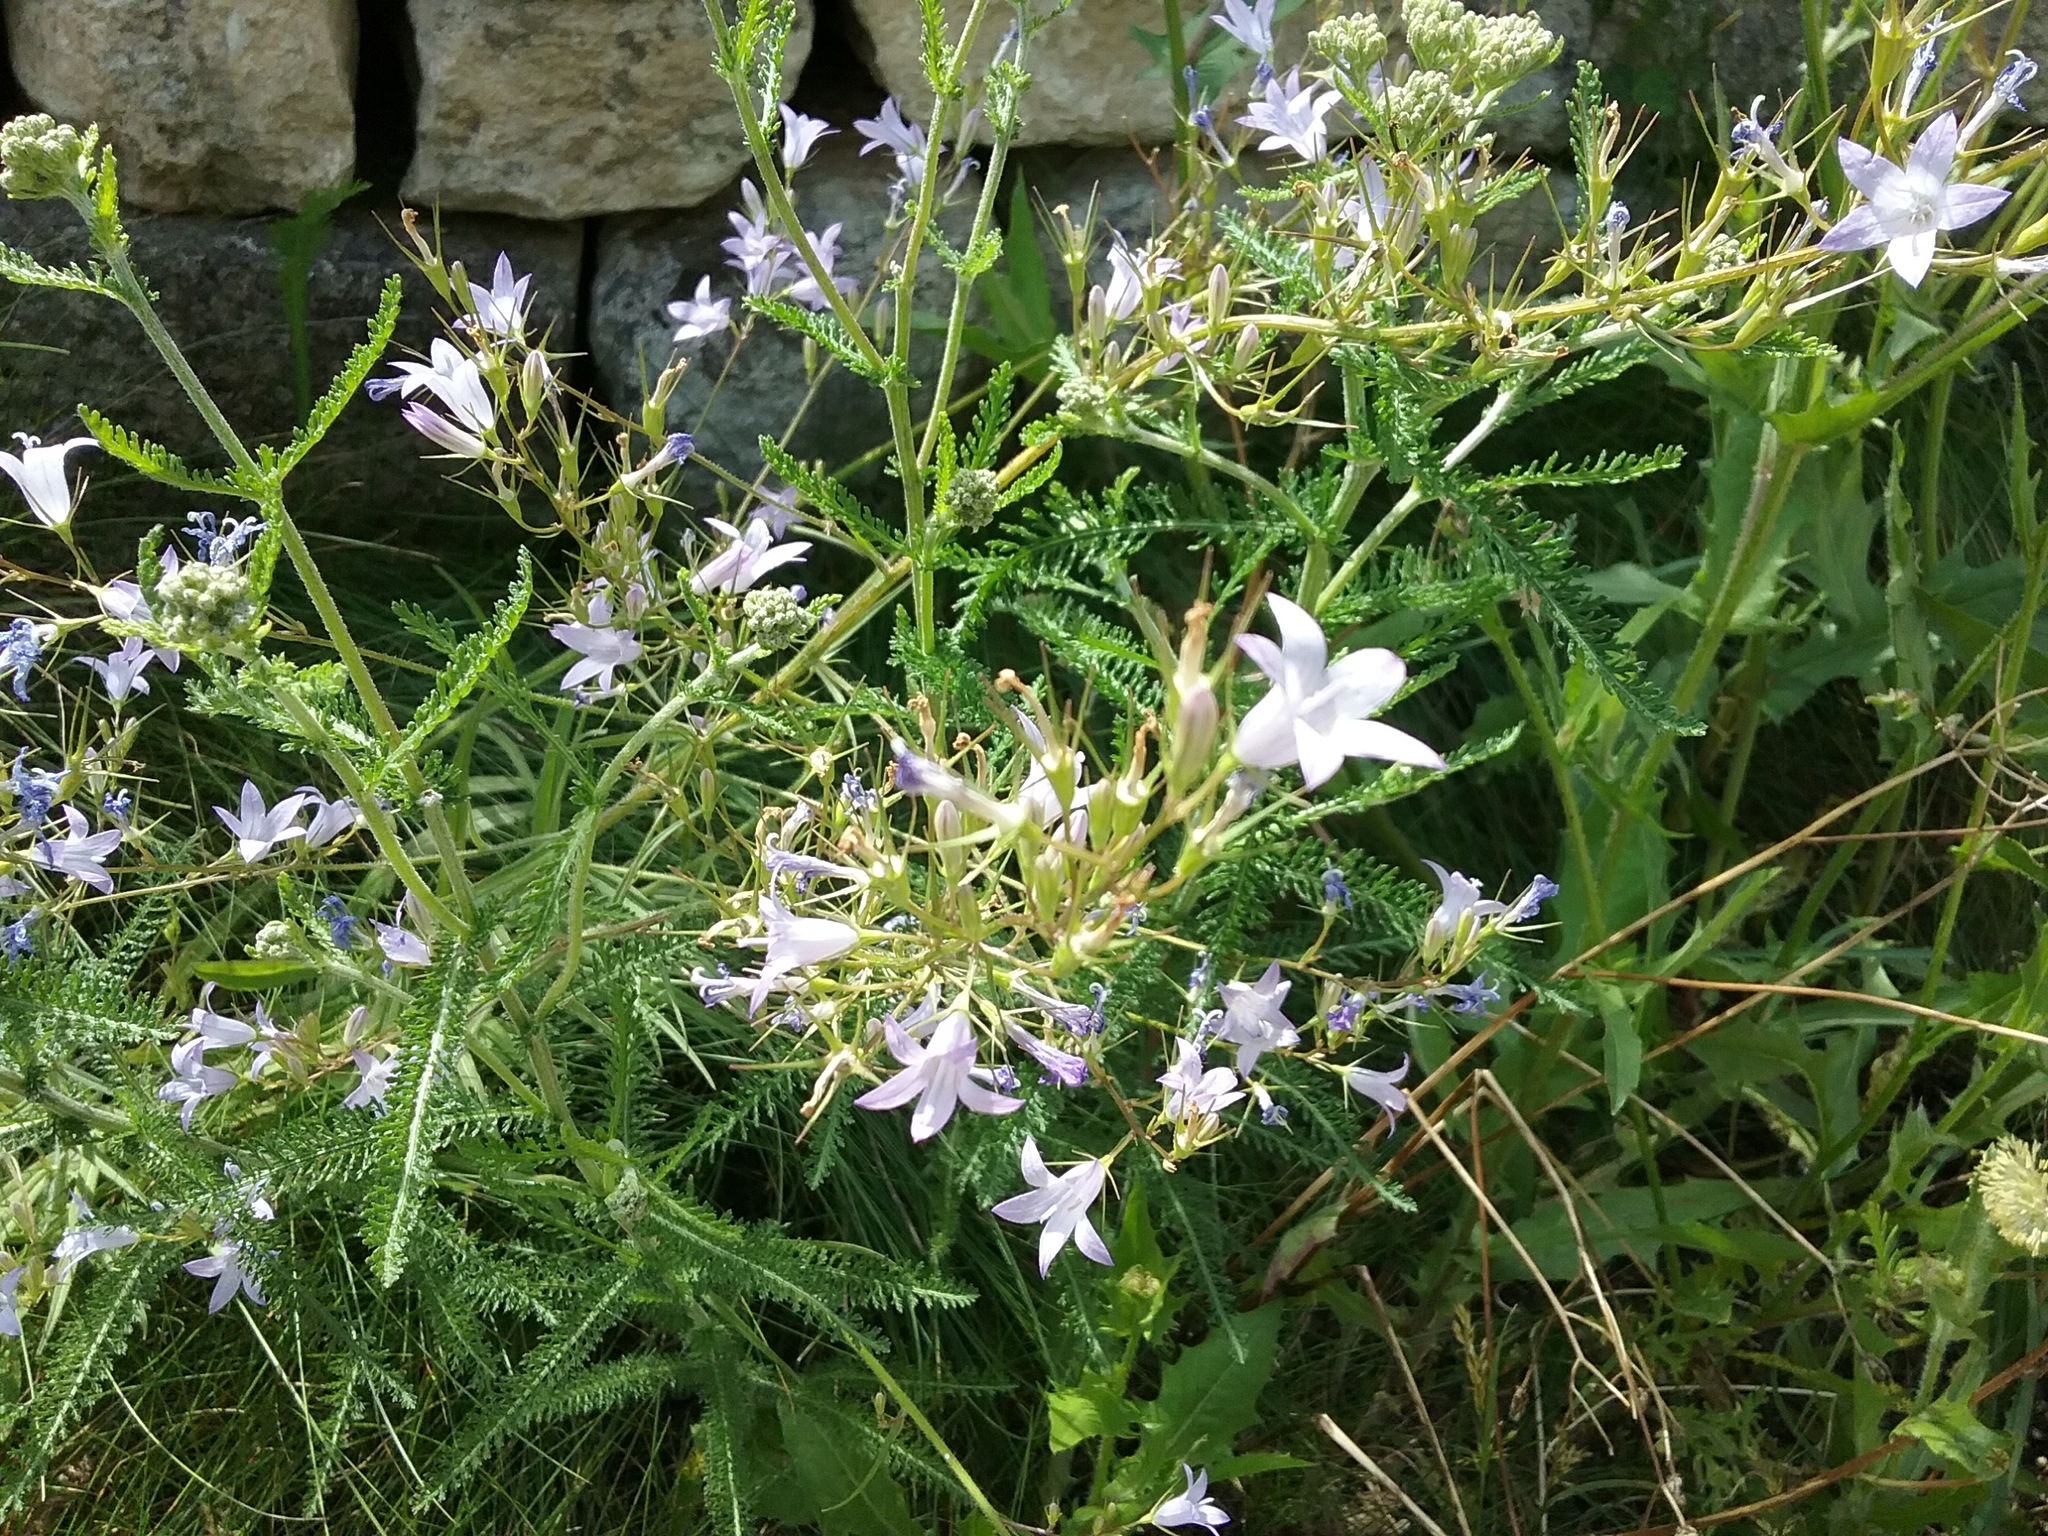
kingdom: Plantae
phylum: Tracheophyta
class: Magnoliopsida
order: Asterales
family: Campanulaceae
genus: Campanula
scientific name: Campanula rapunculus
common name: Rampion bellflower
